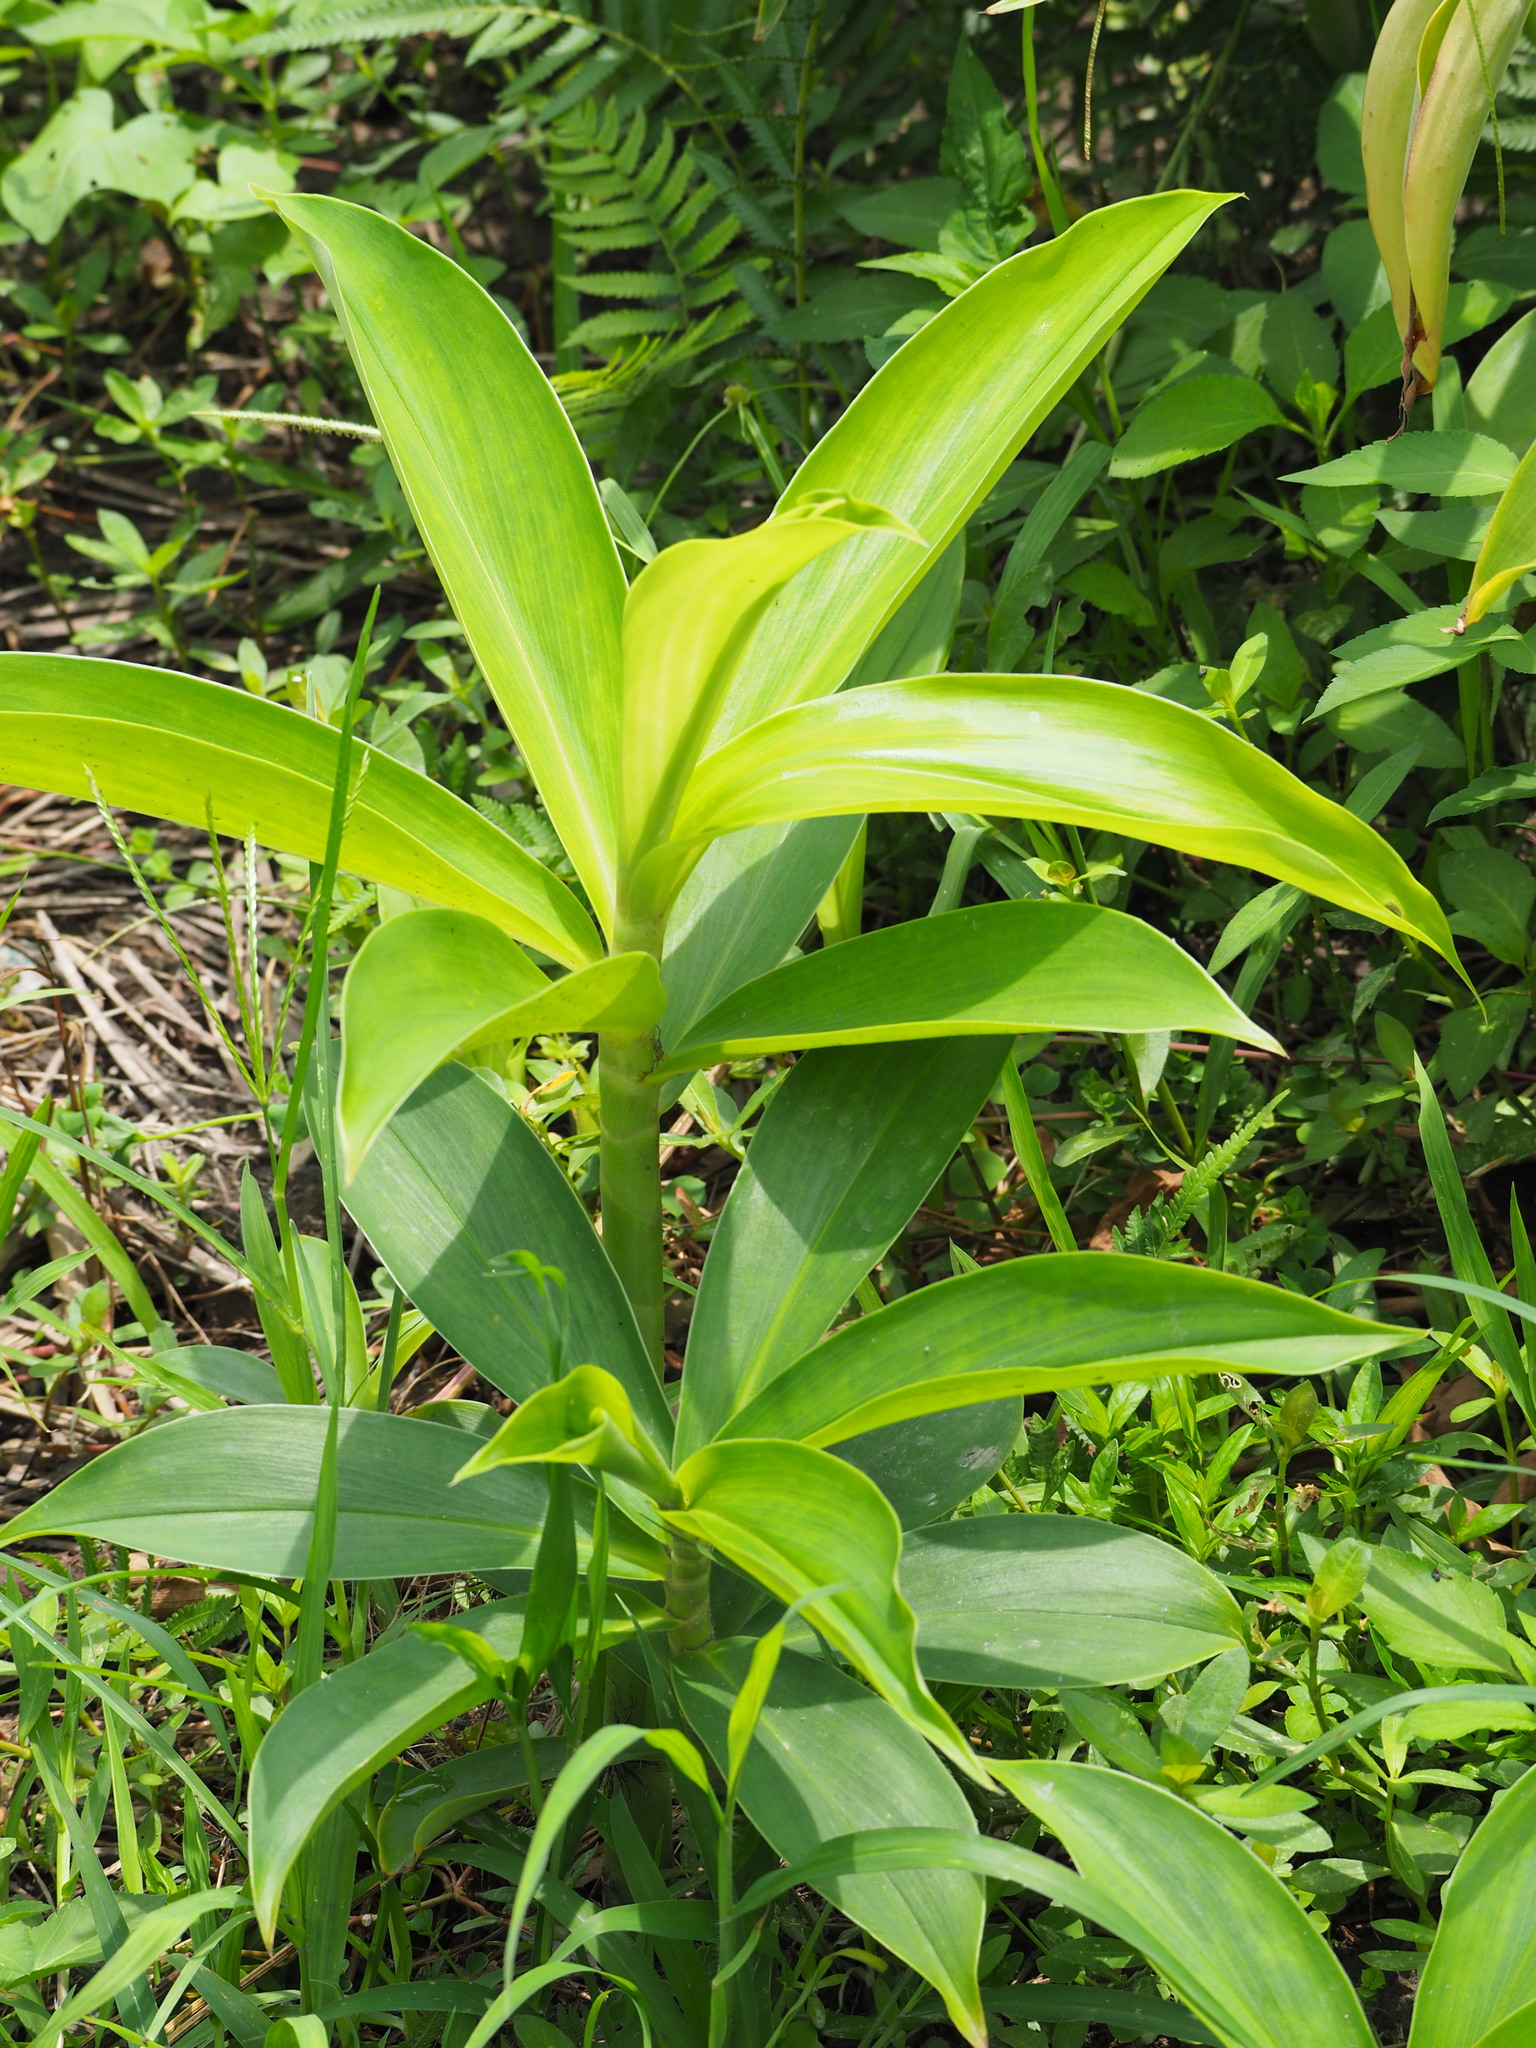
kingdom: Plantae
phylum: Tracheophyta
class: Liliopsida
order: Zingiberales
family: Costaceae
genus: Hellenia
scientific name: Hellenia speciosa
